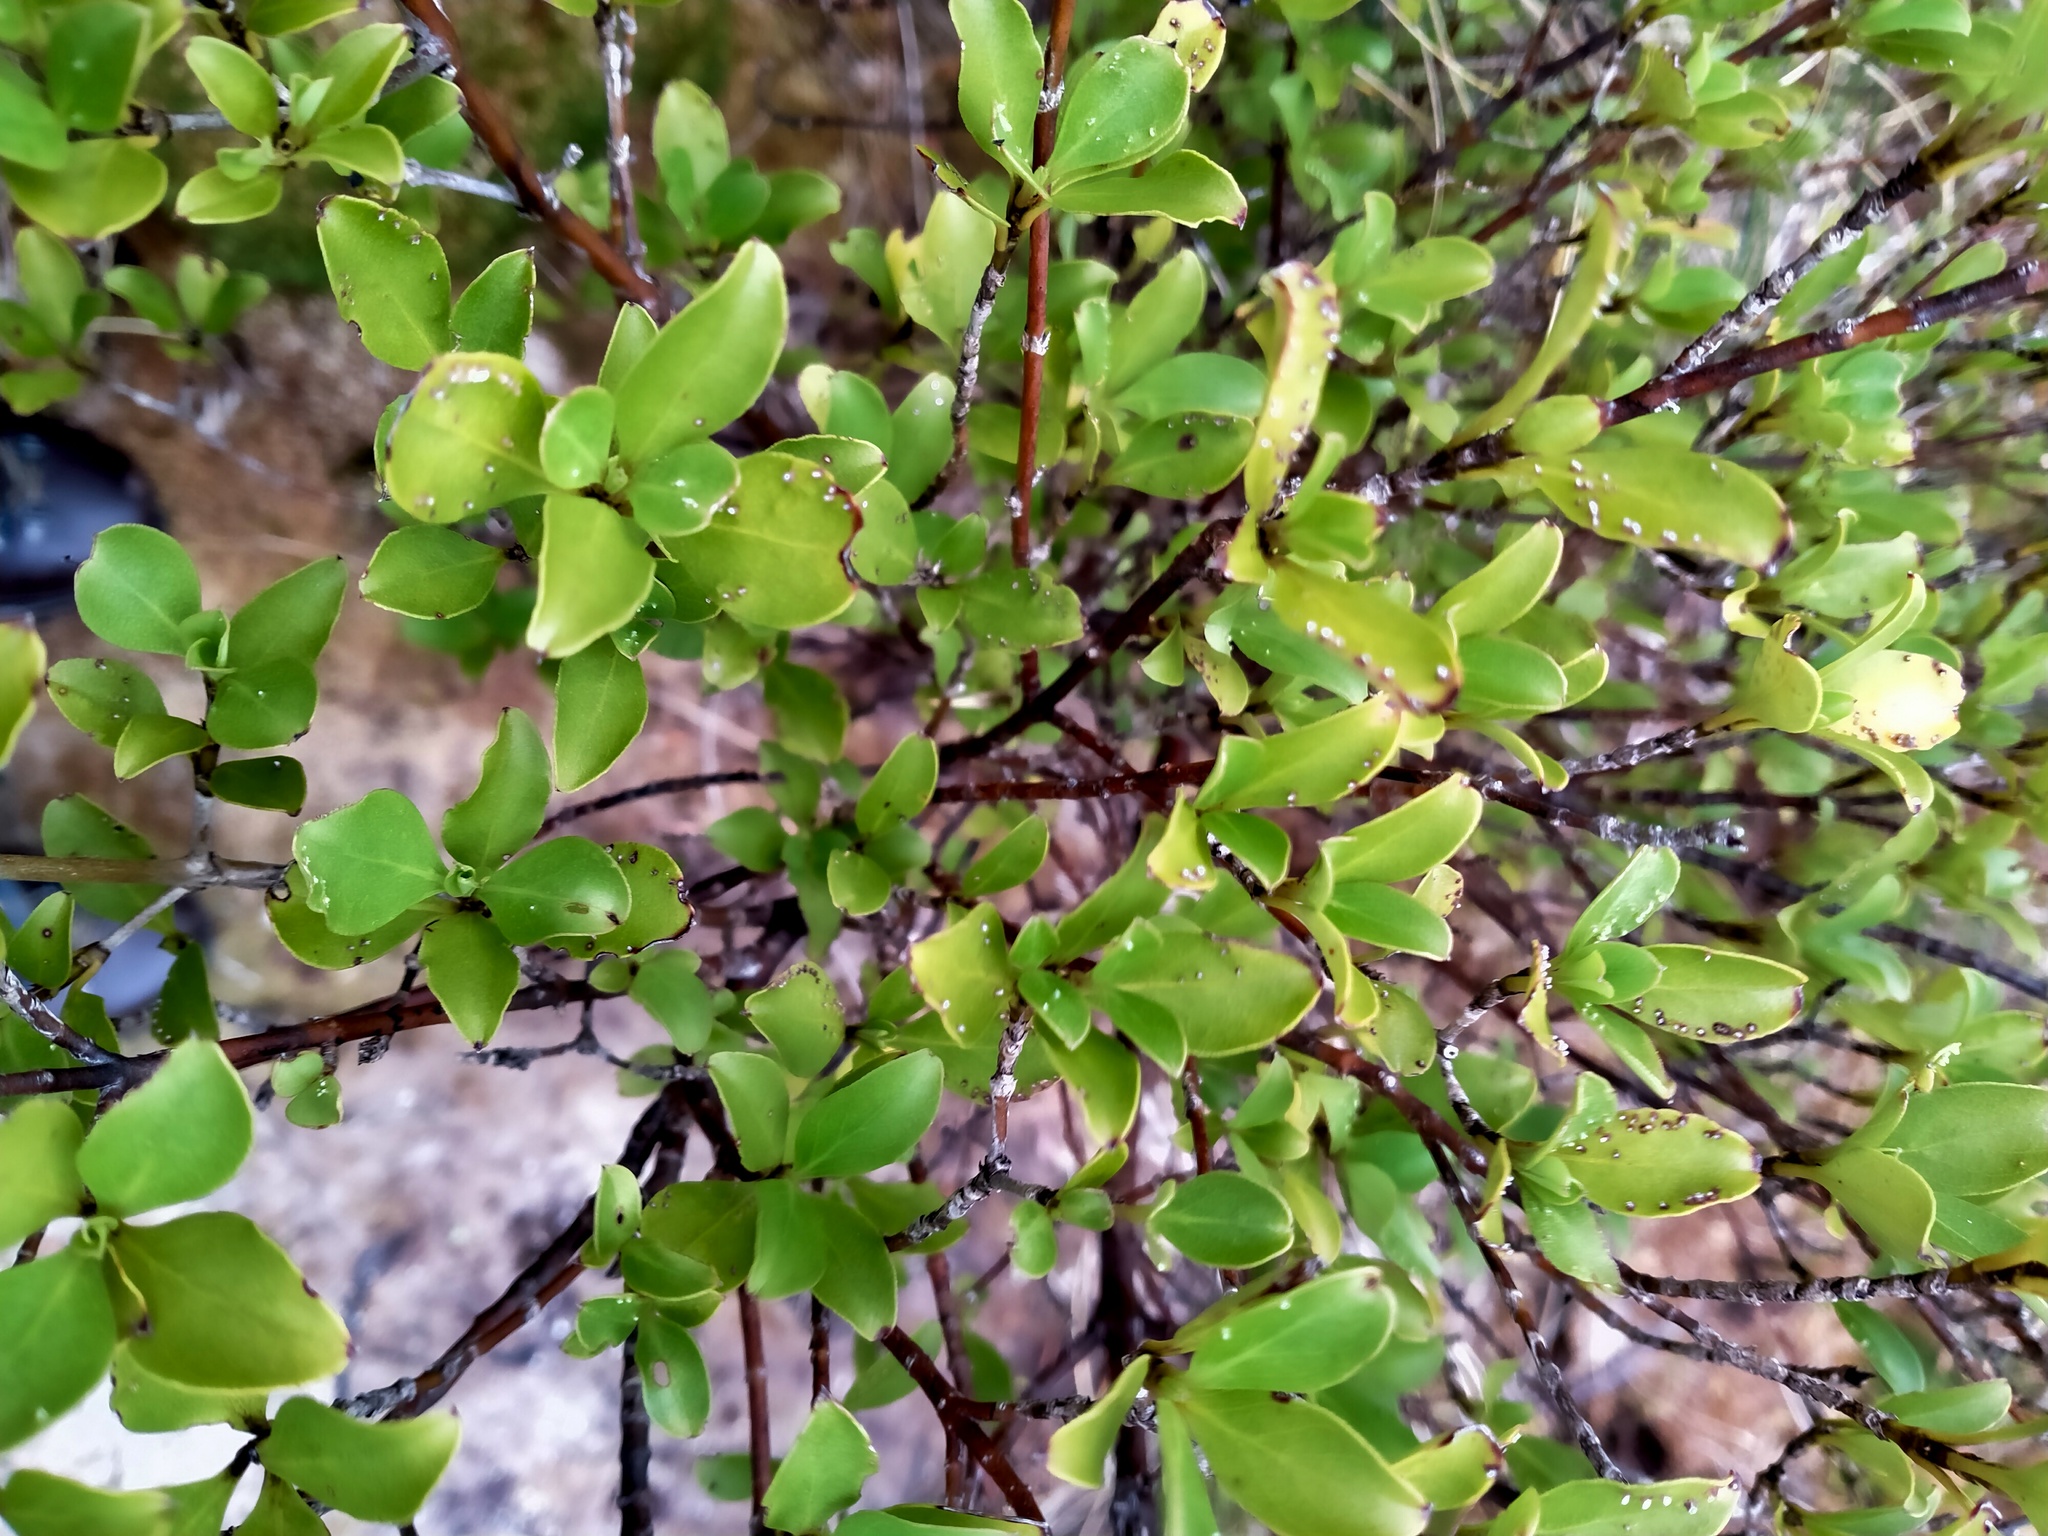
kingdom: Plantae
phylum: Tracheophyta
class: Magnoliopsida
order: Gentianales
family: Rubiaceae
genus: Coprosma
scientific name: Coprosma foetidissima
